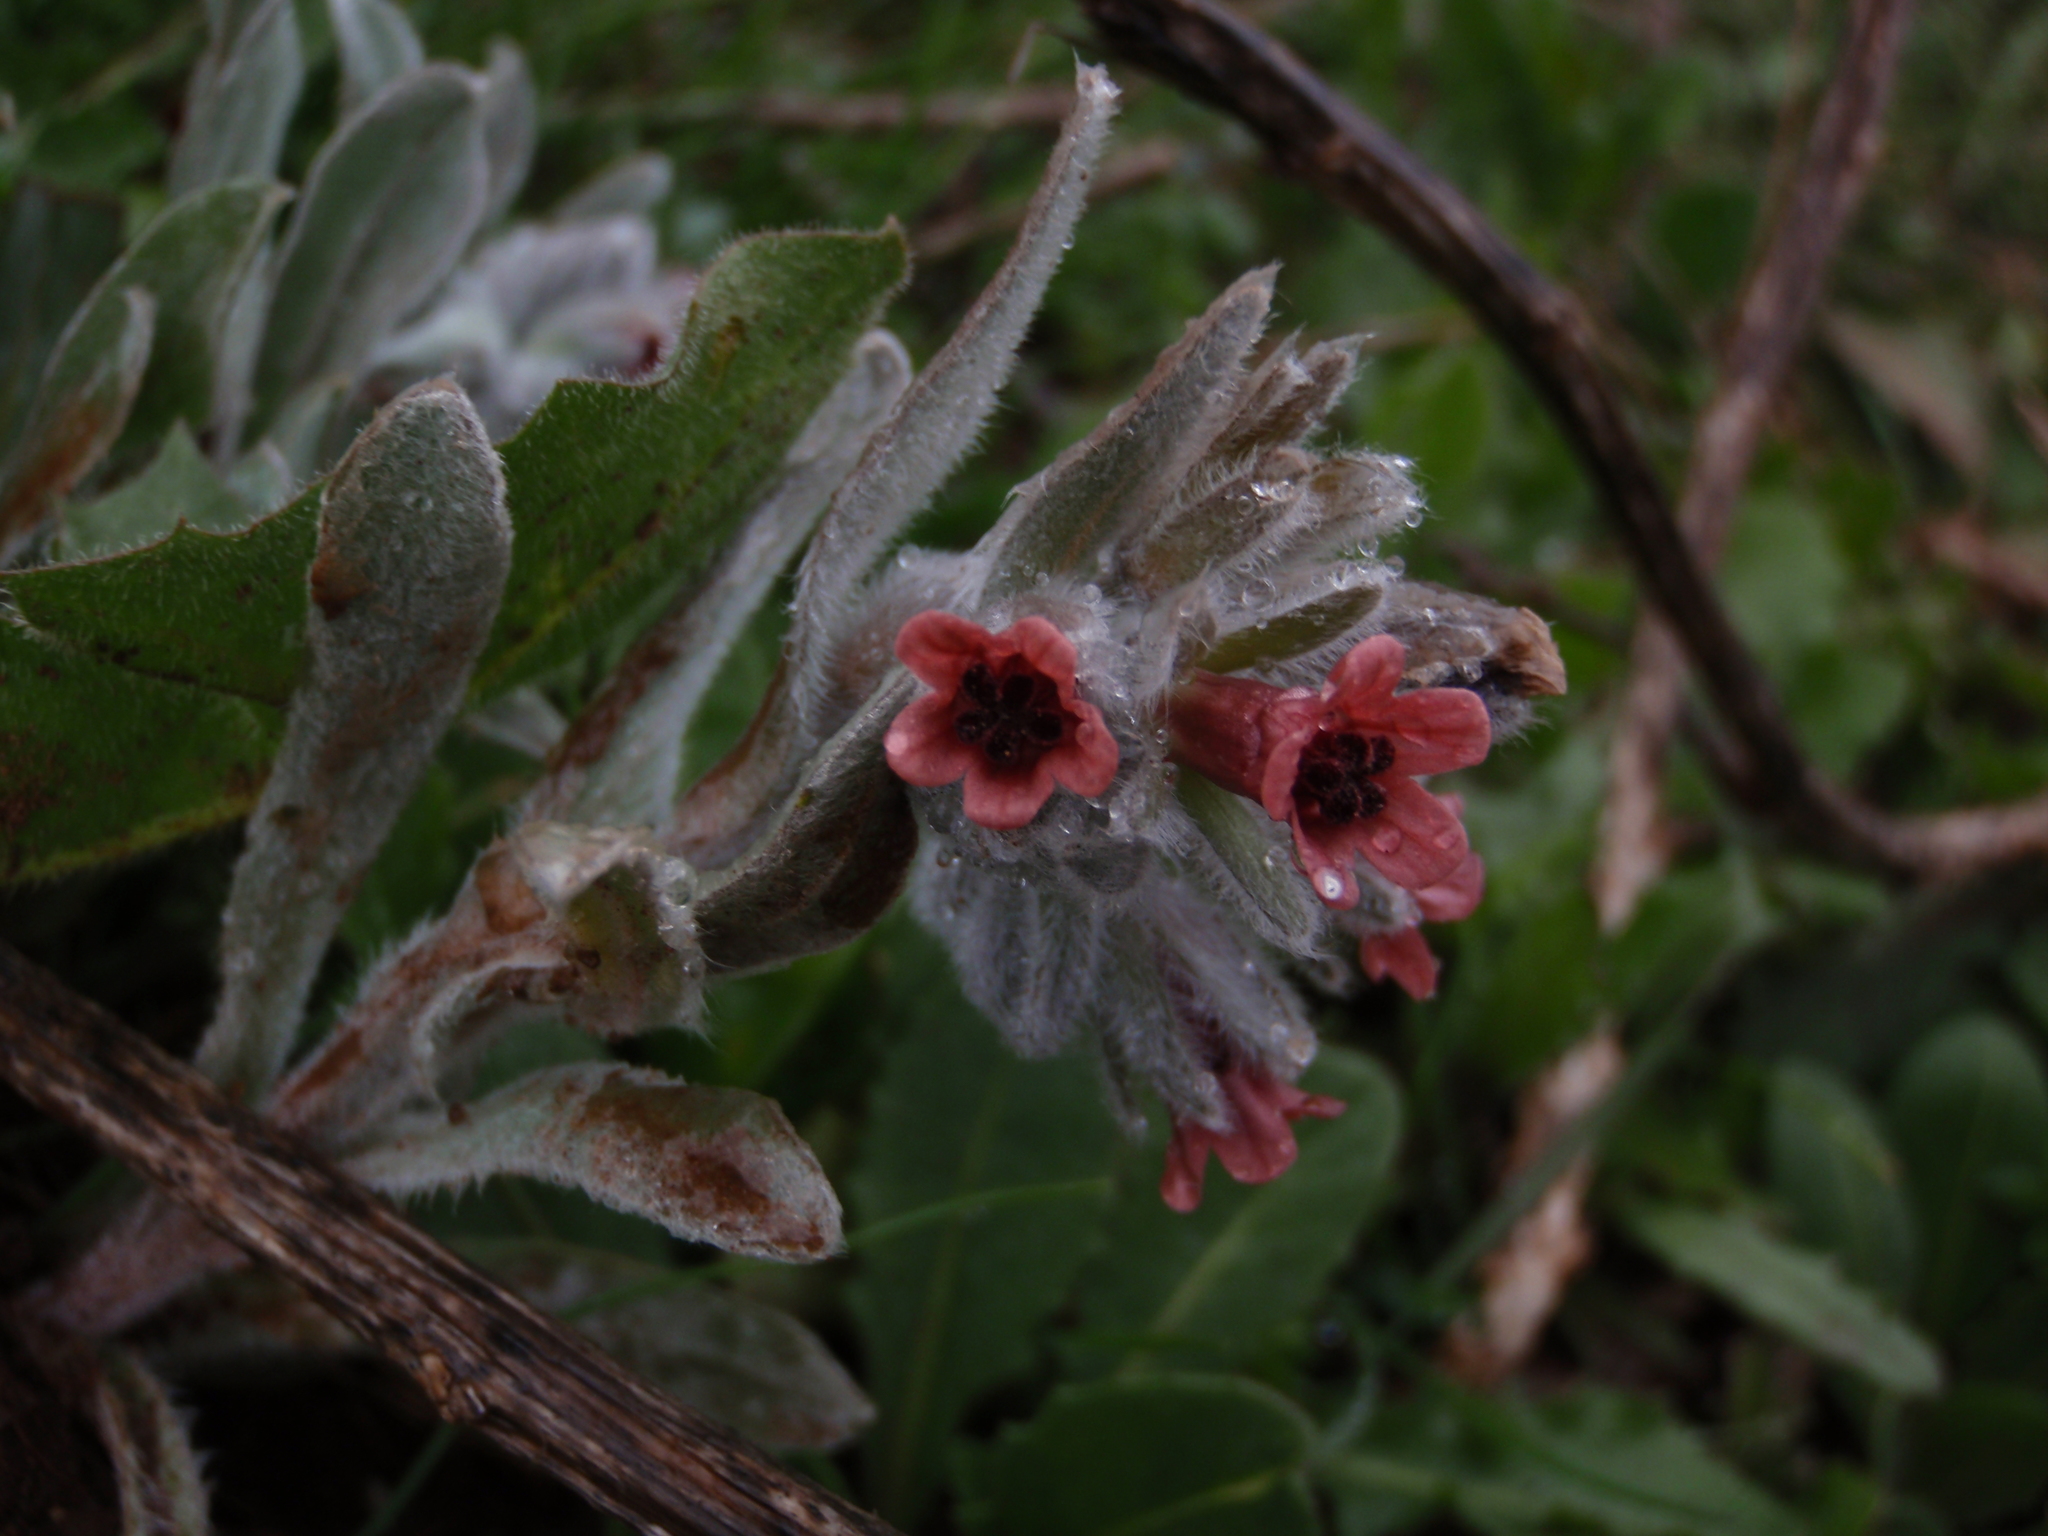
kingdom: Plantae
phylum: Tracheophyta
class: Magnoliopsida
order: Boraginales
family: Boraginaceae
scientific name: Boraginaceae
